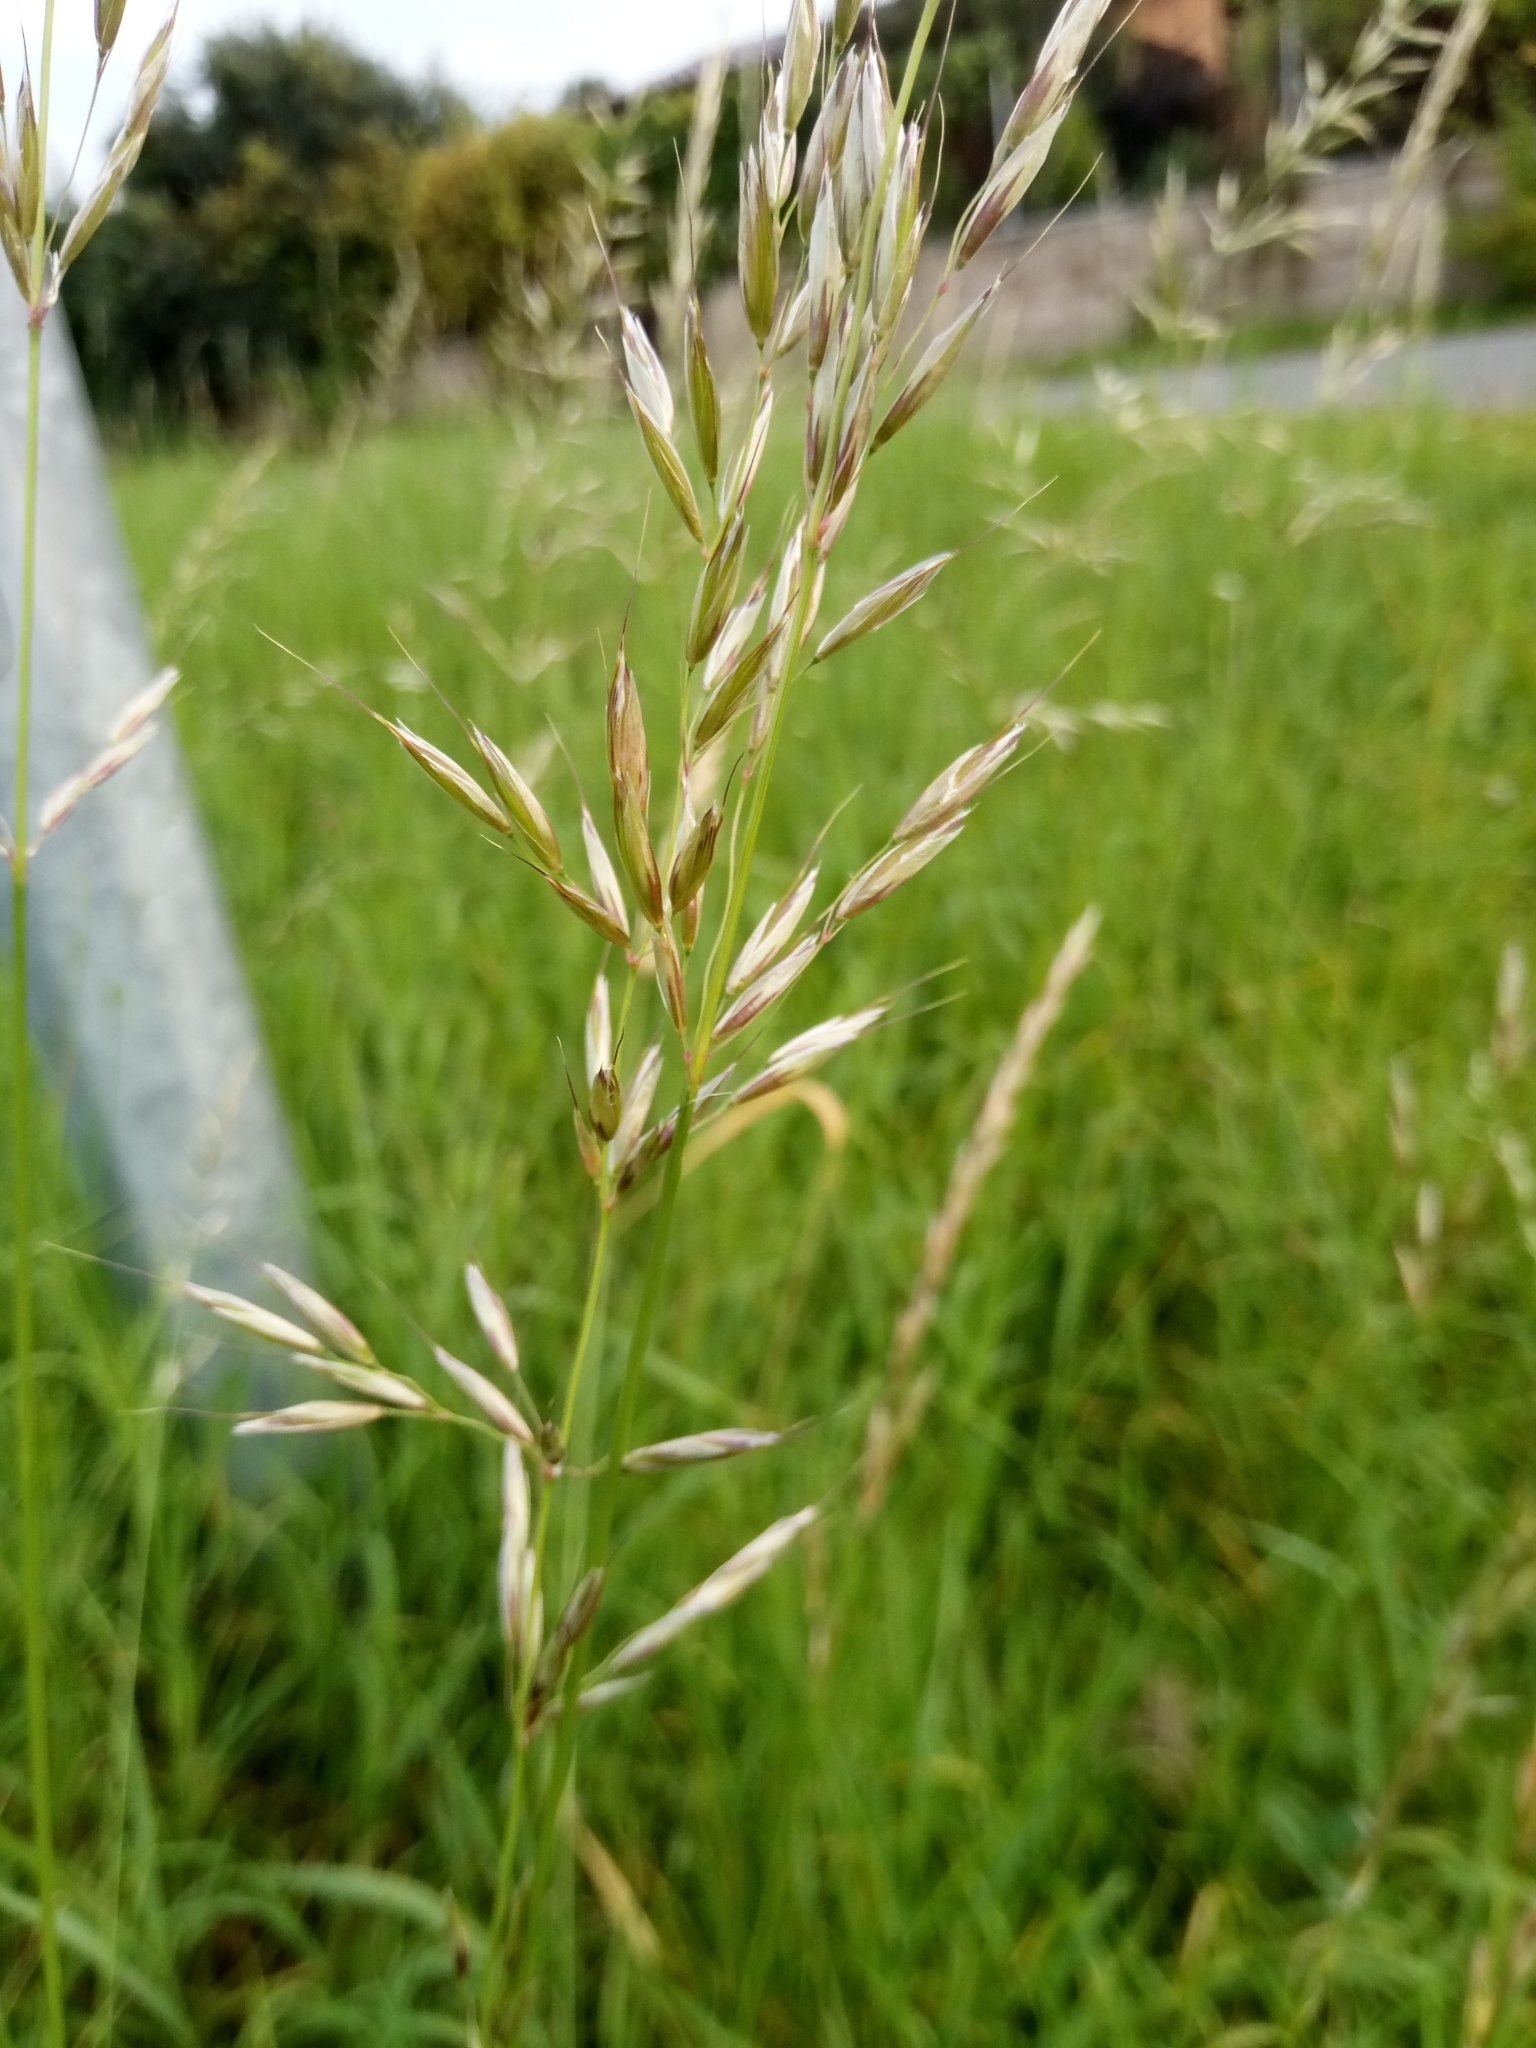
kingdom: Plantae
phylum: Tracheophyta
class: Liliopsida
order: Poales
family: Poaceae
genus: Arrhenatherum
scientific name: Arrhenatherum elatius
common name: Tall oatgrass
